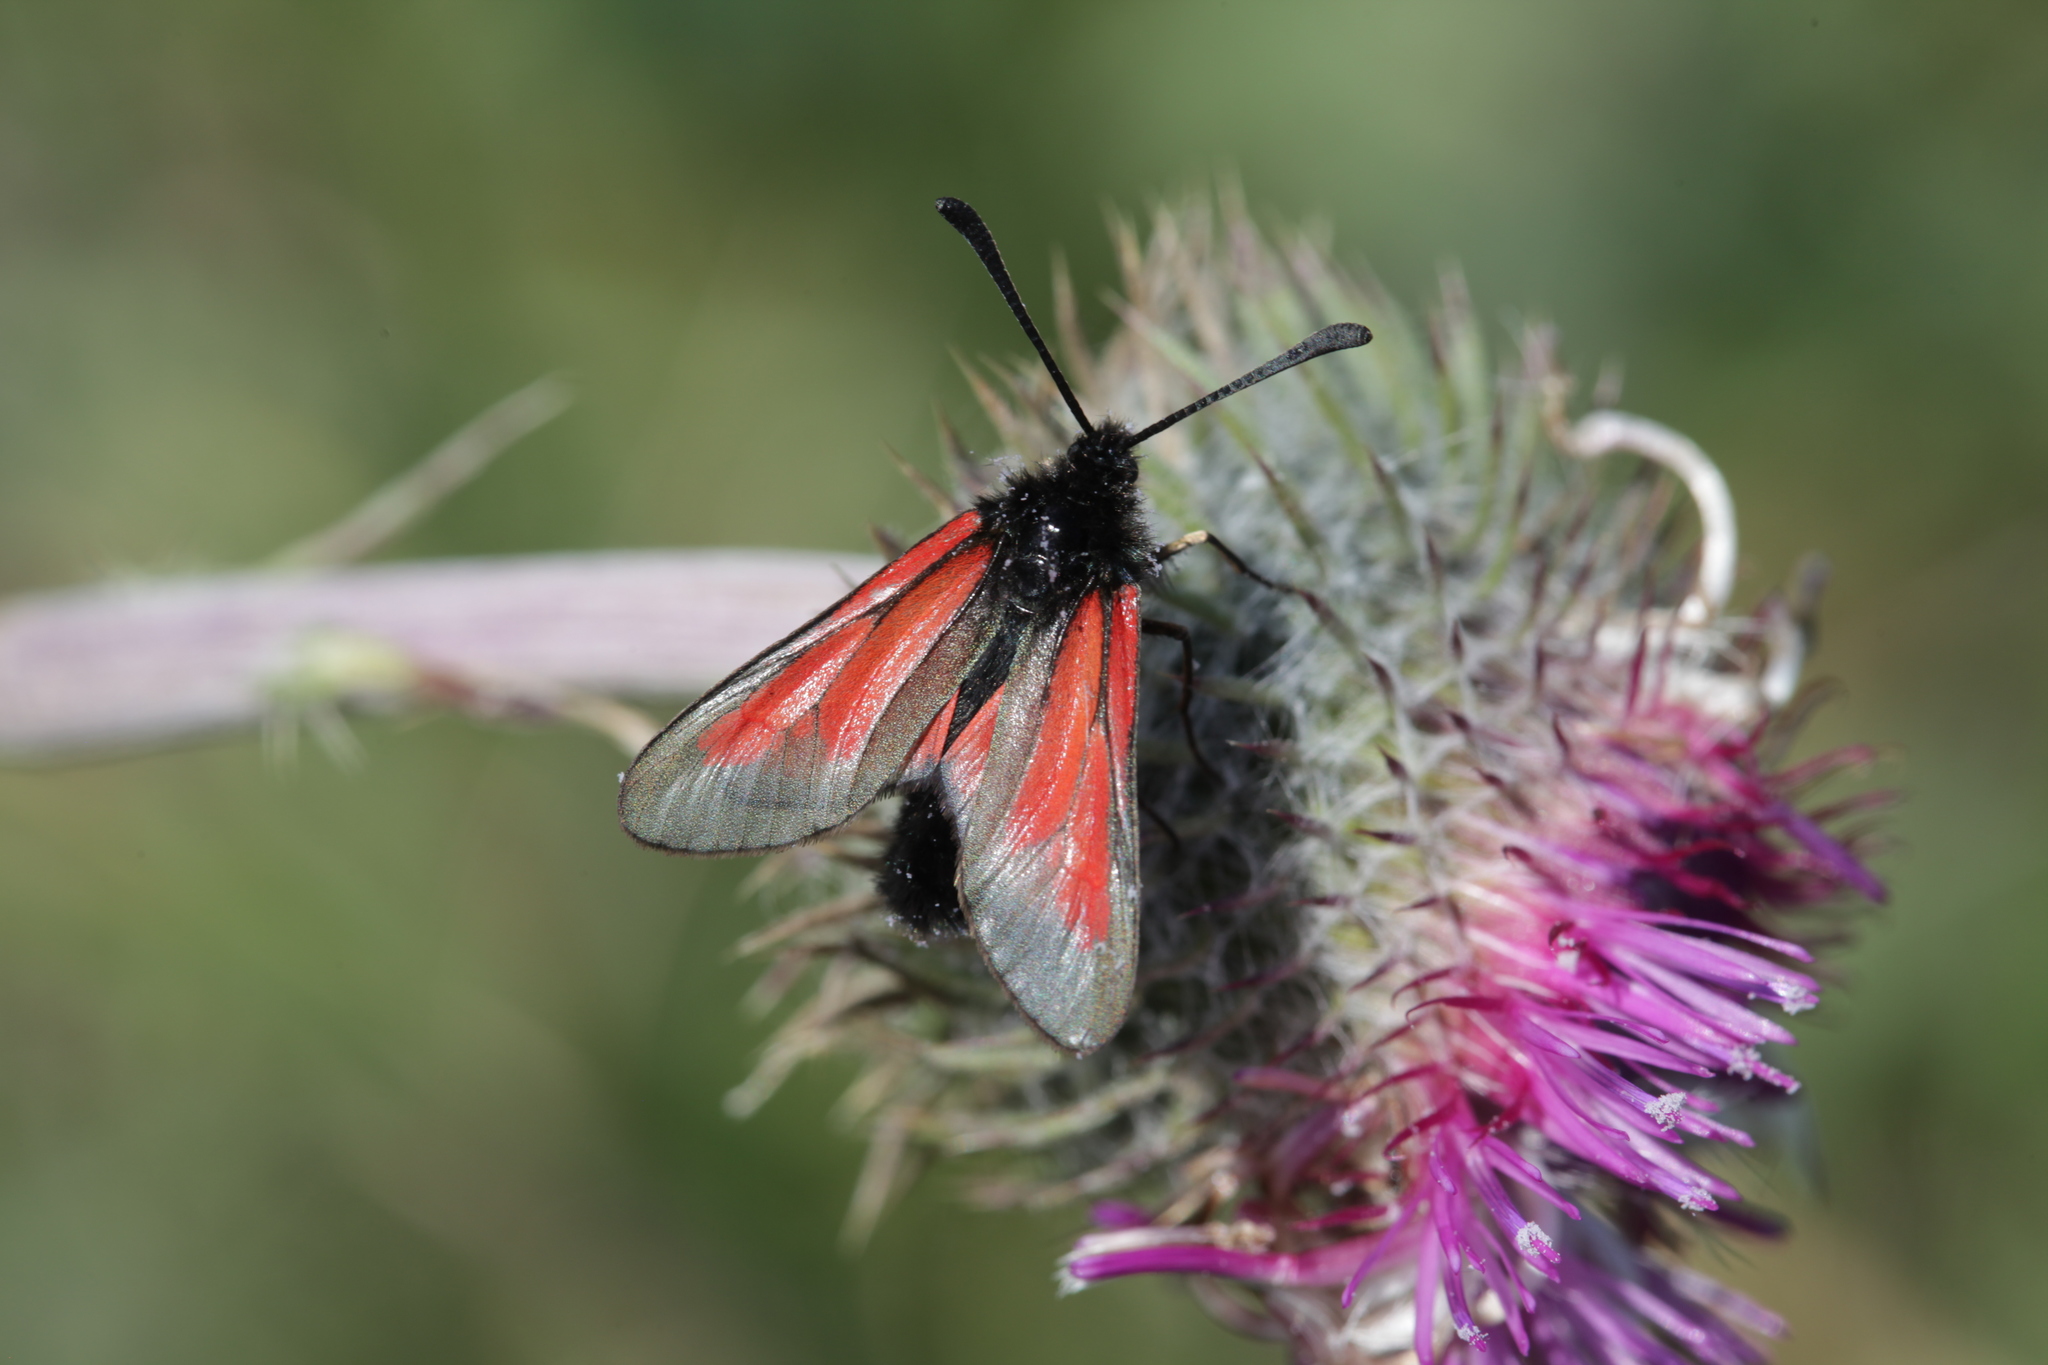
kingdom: Animalia
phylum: Arthropoda
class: Insecta
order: Lepidoptera
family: Zygaenidae
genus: Zygaena
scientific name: Zygaena brizae
